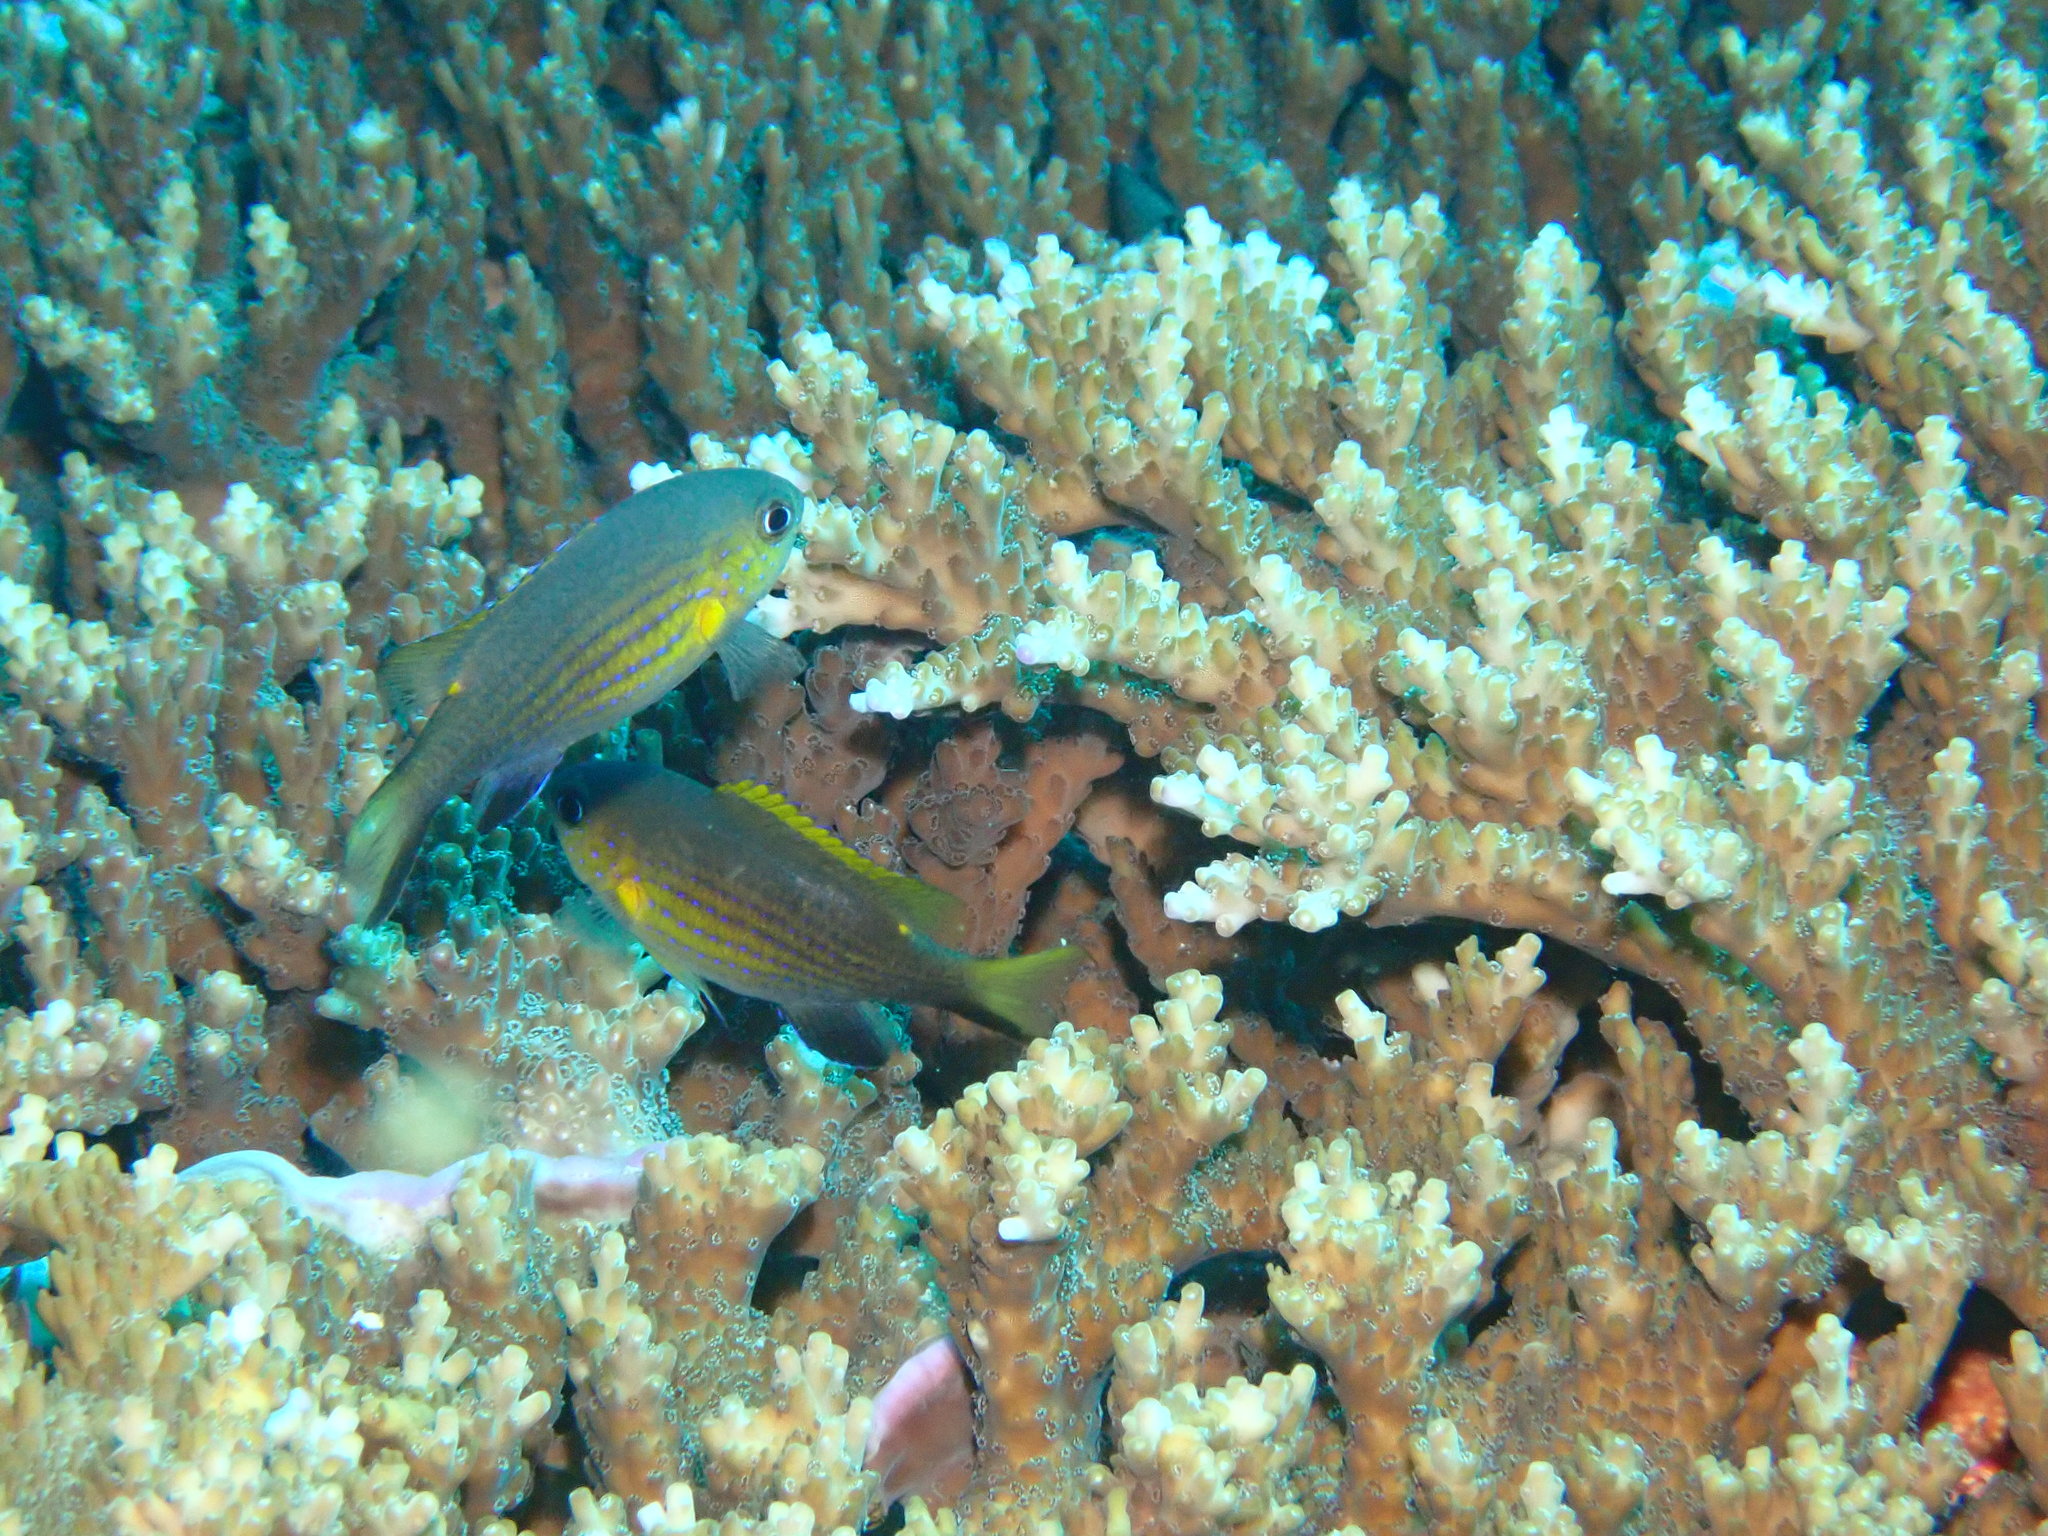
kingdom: Animalia
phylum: Chordata
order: Perciformes
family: Pomacentridae
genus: Chromis
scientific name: Chromis vanderbilti
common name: Vanderbilt's chromis
